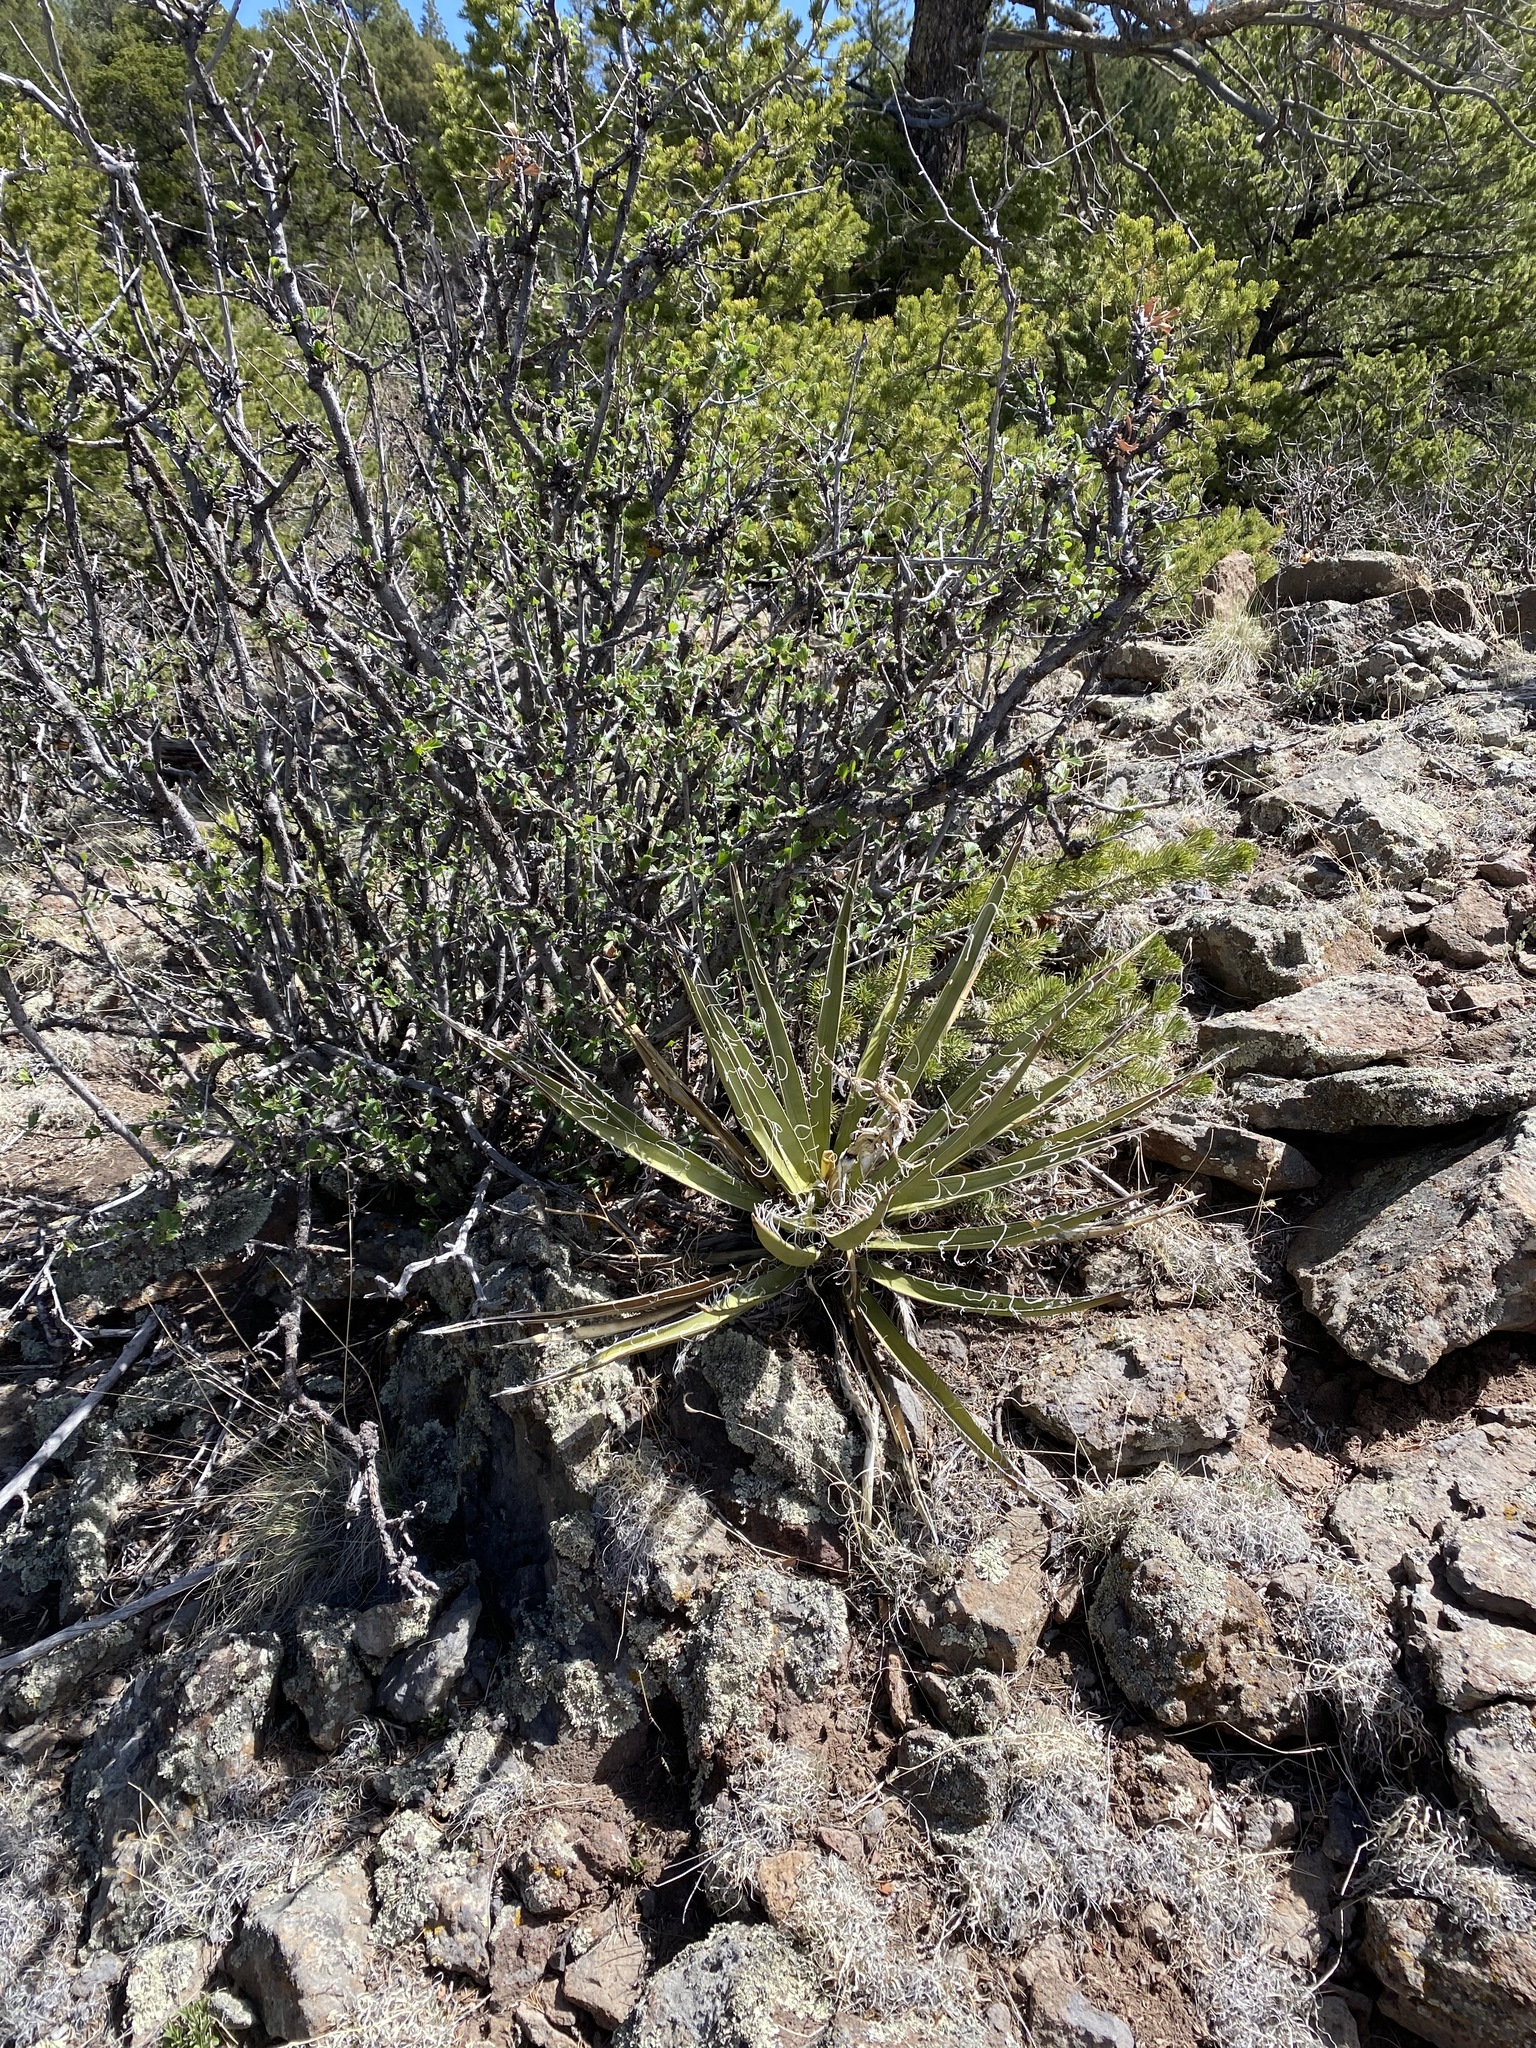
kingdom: Plantae
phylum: Tracheophyta
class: Liliopsida
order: Asparagales
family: Asparagaceae
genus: Yucca
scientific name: Yucca baccata
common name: Banana yucca
